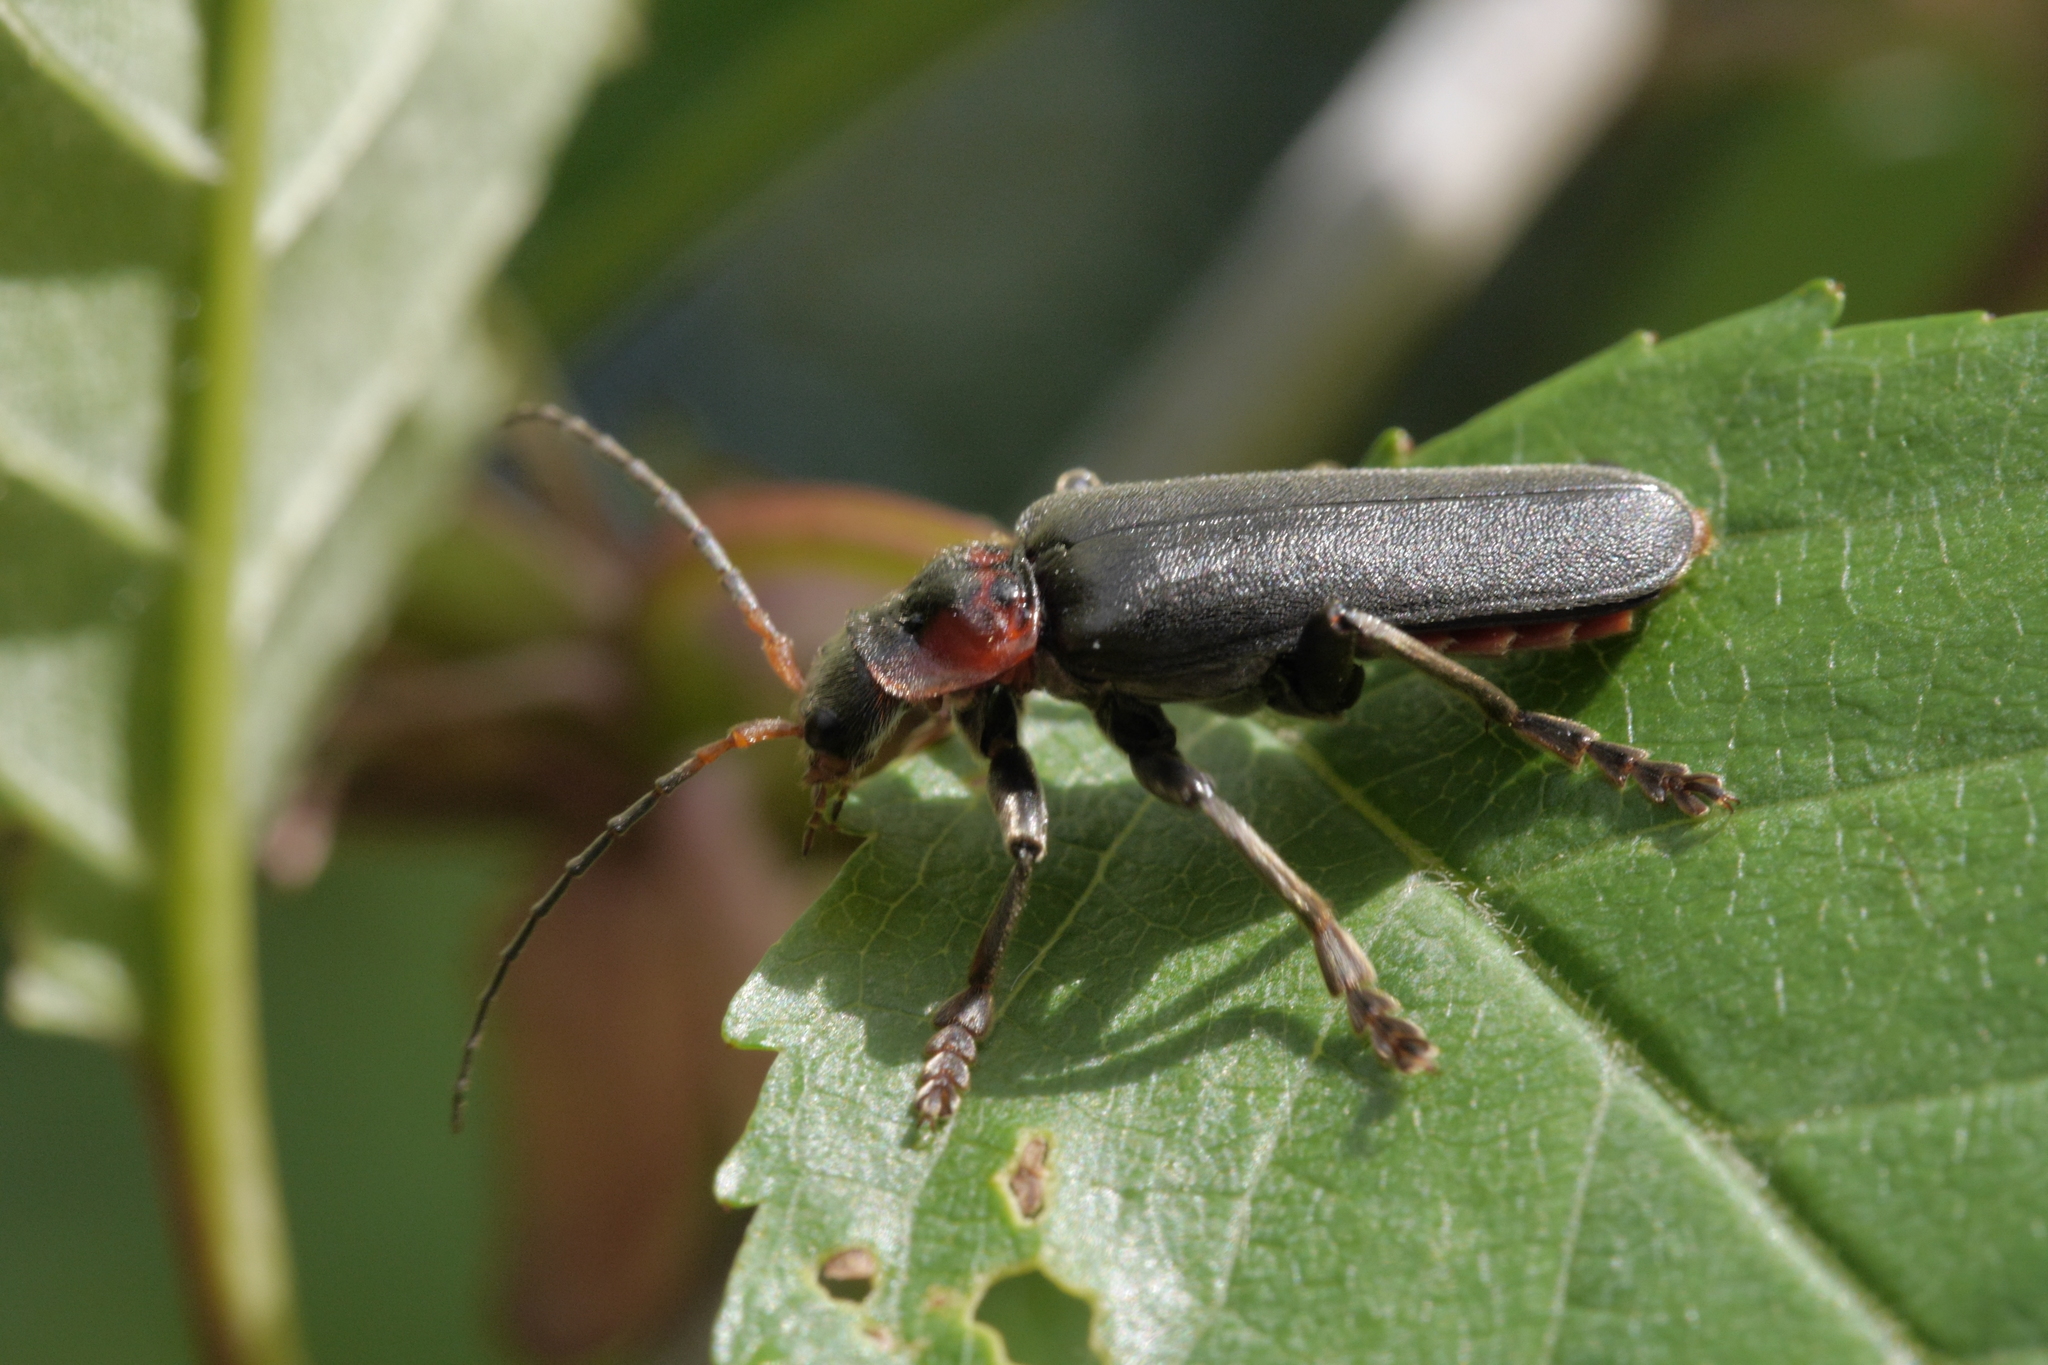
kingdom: Animalia
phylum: Arthropoda
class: Insecta
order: Coleoptera
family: Cantharidae
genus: Cantharis
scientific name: Cantharis fusca
